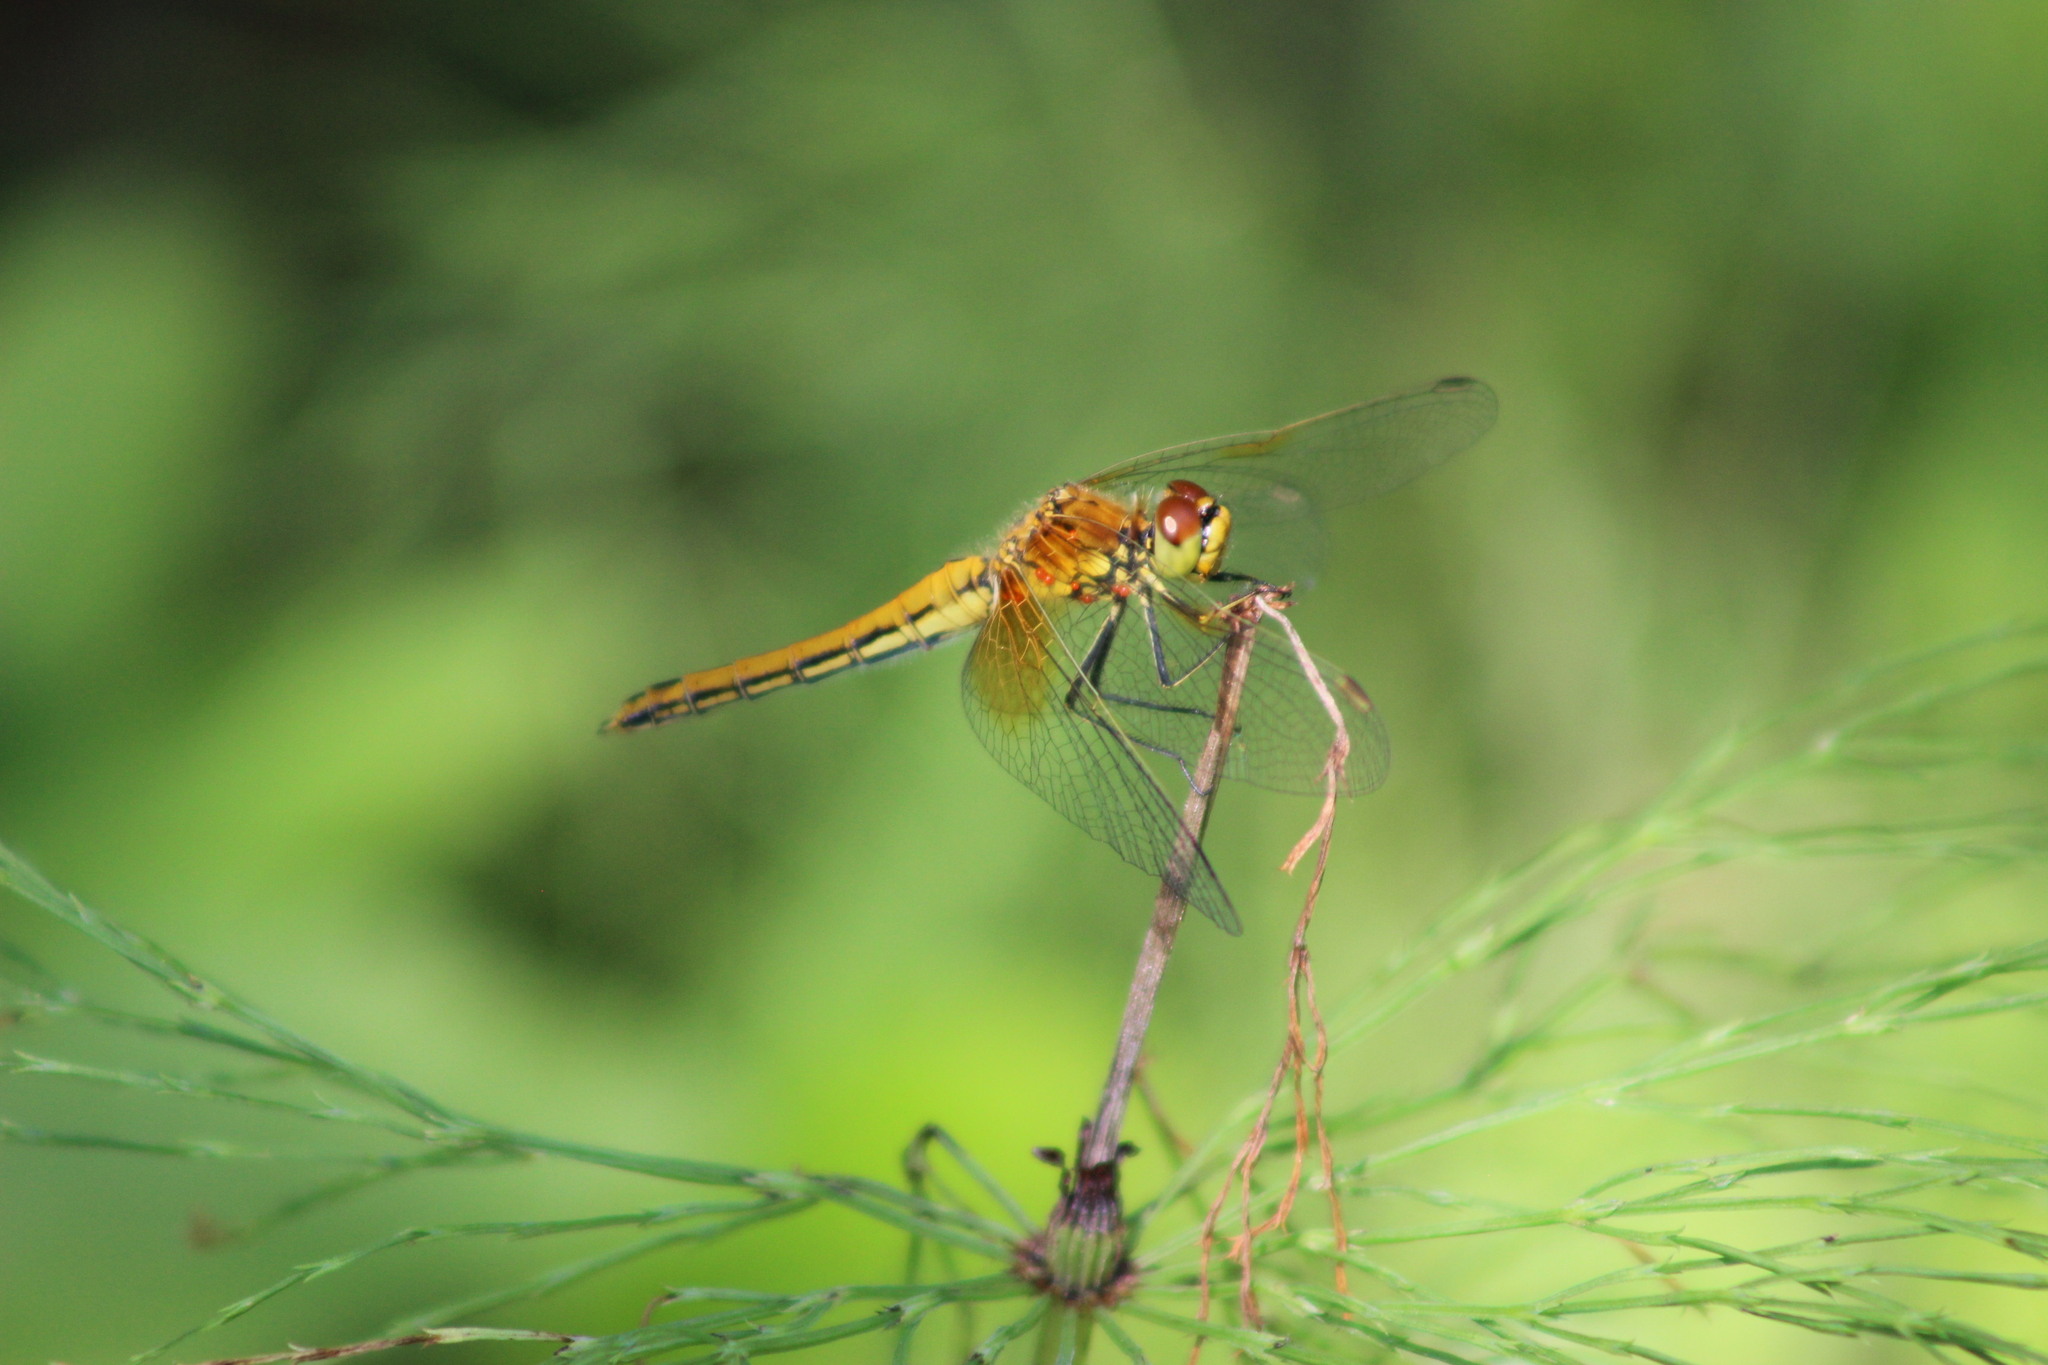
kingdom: Animalia
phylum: Arthropoda
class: Insecta
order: Odonata
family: Libellulidae
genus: Sympetrum
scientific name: Sympetrum flaveolum
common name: Yellow-winged darter
